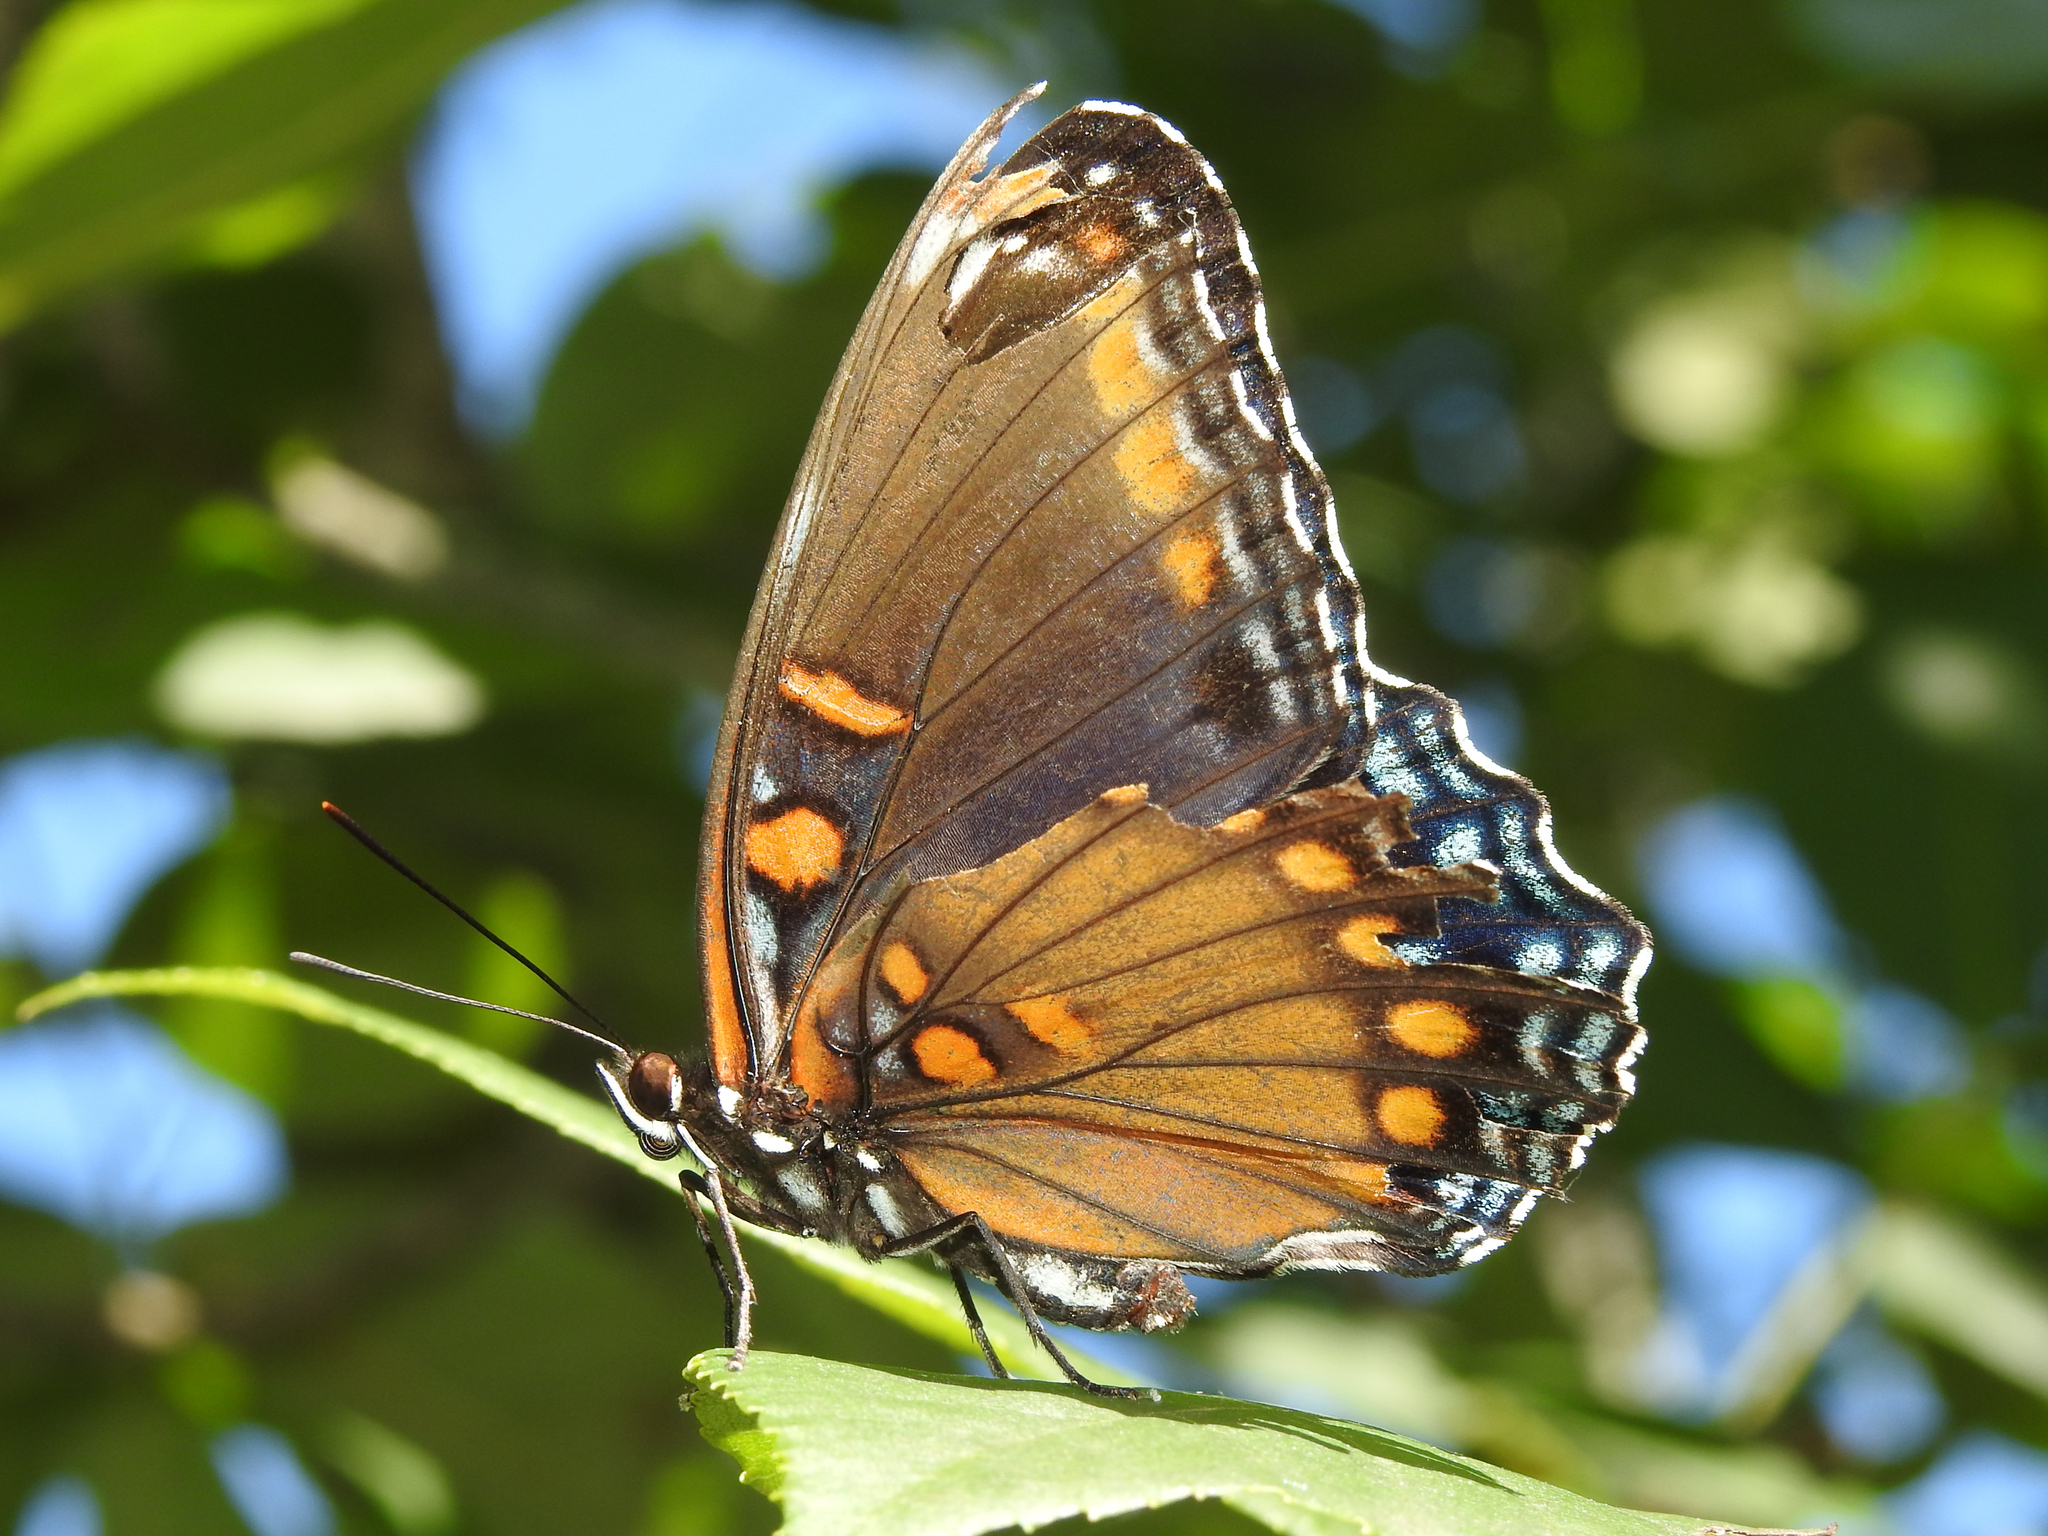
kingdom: Animalia
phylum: Arthropoda
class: Insecta
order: Lepidoptera
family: Nymphalidae
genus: Limenitis
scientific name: Limenitis arthemis
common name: Red-spotted admiral
